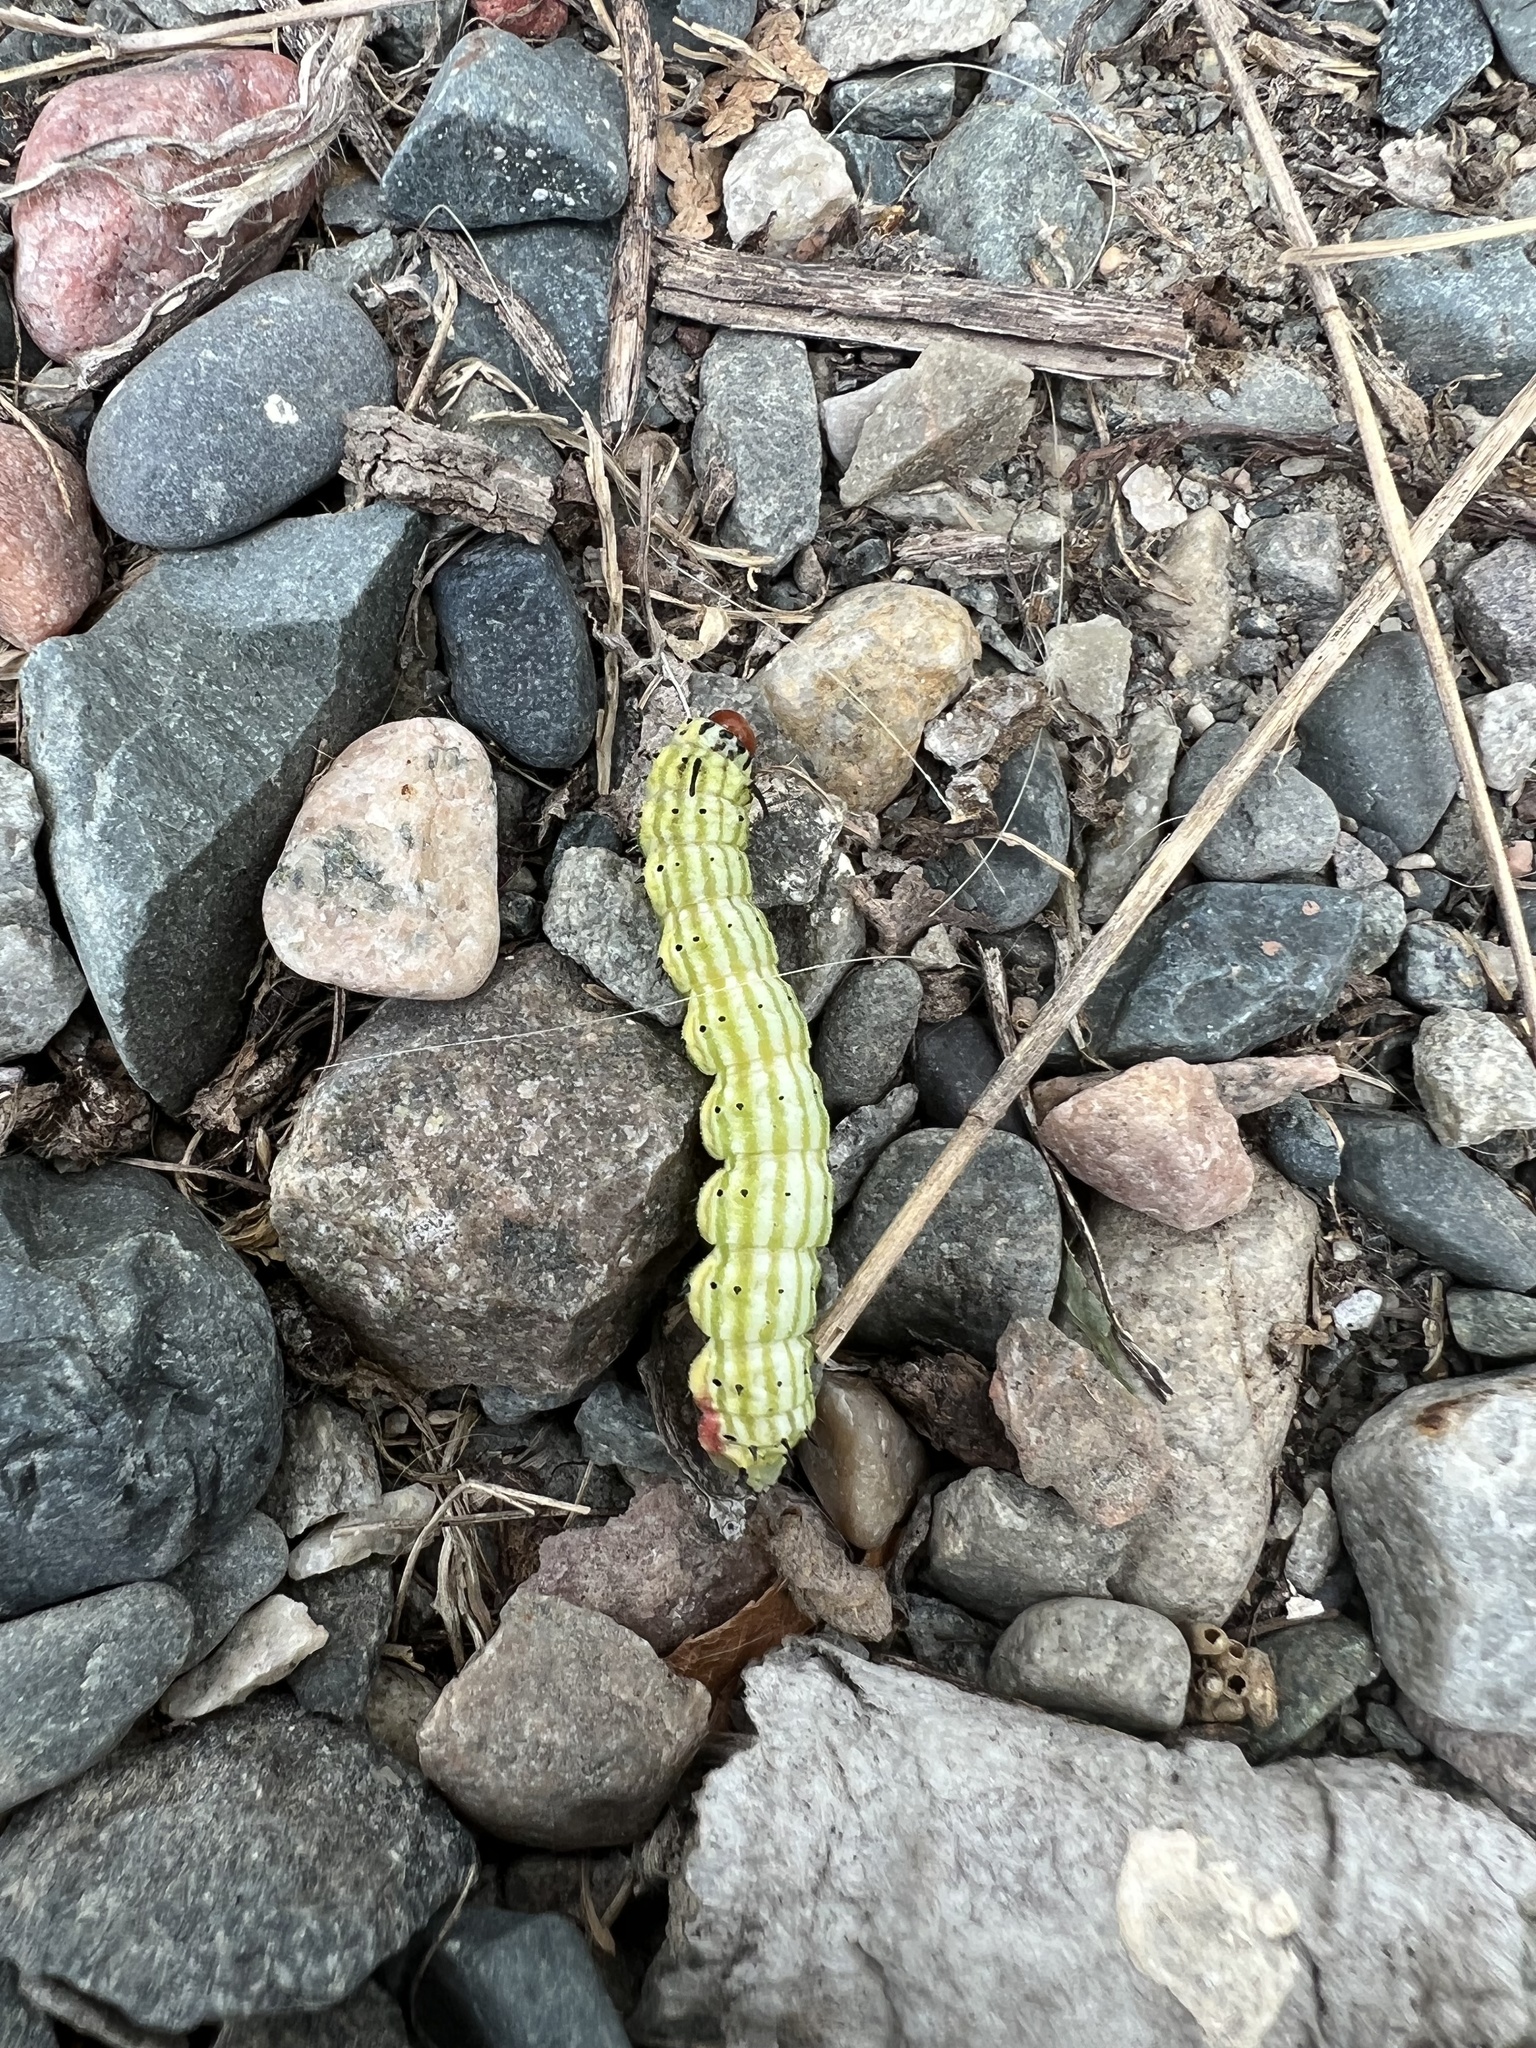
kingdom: Animalia
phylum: Arthropoda
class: Insecta
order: Lepidoptera
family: Saturniidae
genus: Dryocampa
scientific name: Dryocampa rubicunda
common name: Rosy maple moth
